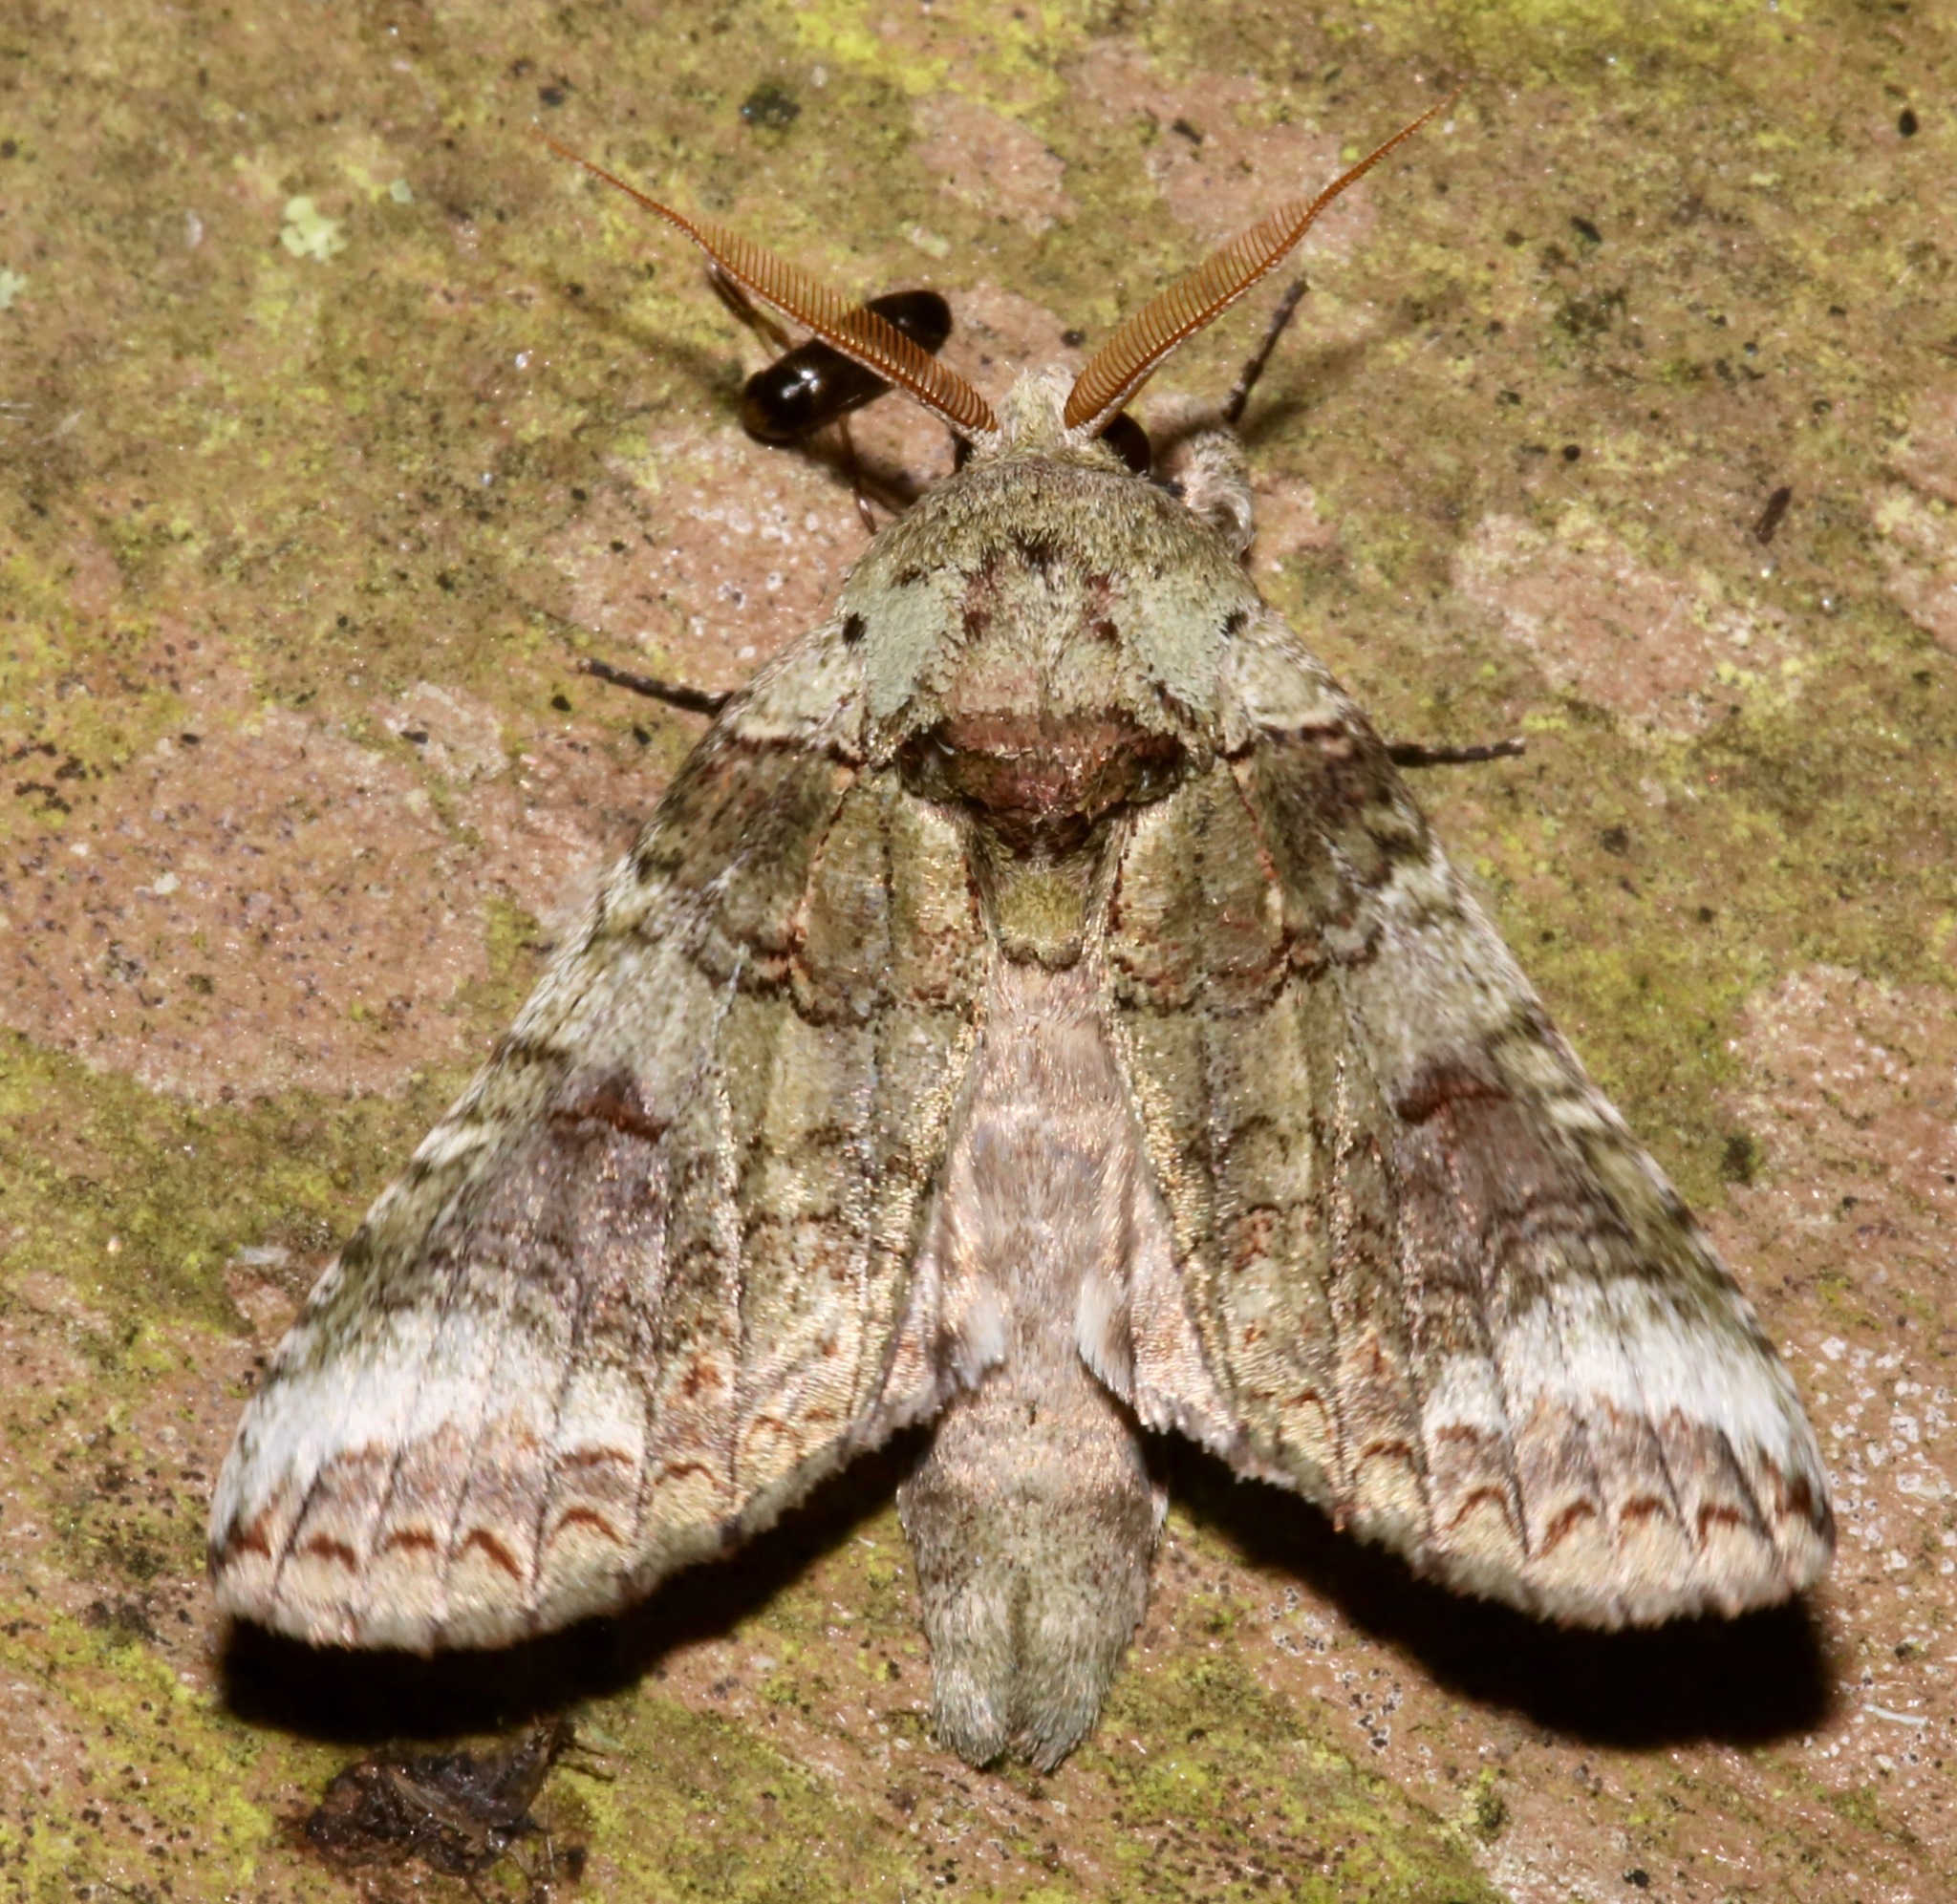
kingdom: Animalia
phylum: Arthropoda
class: Insecta
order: Lepidoptera
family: Notodontidae
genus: Heterocampa
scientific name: Heterocampa astarte
